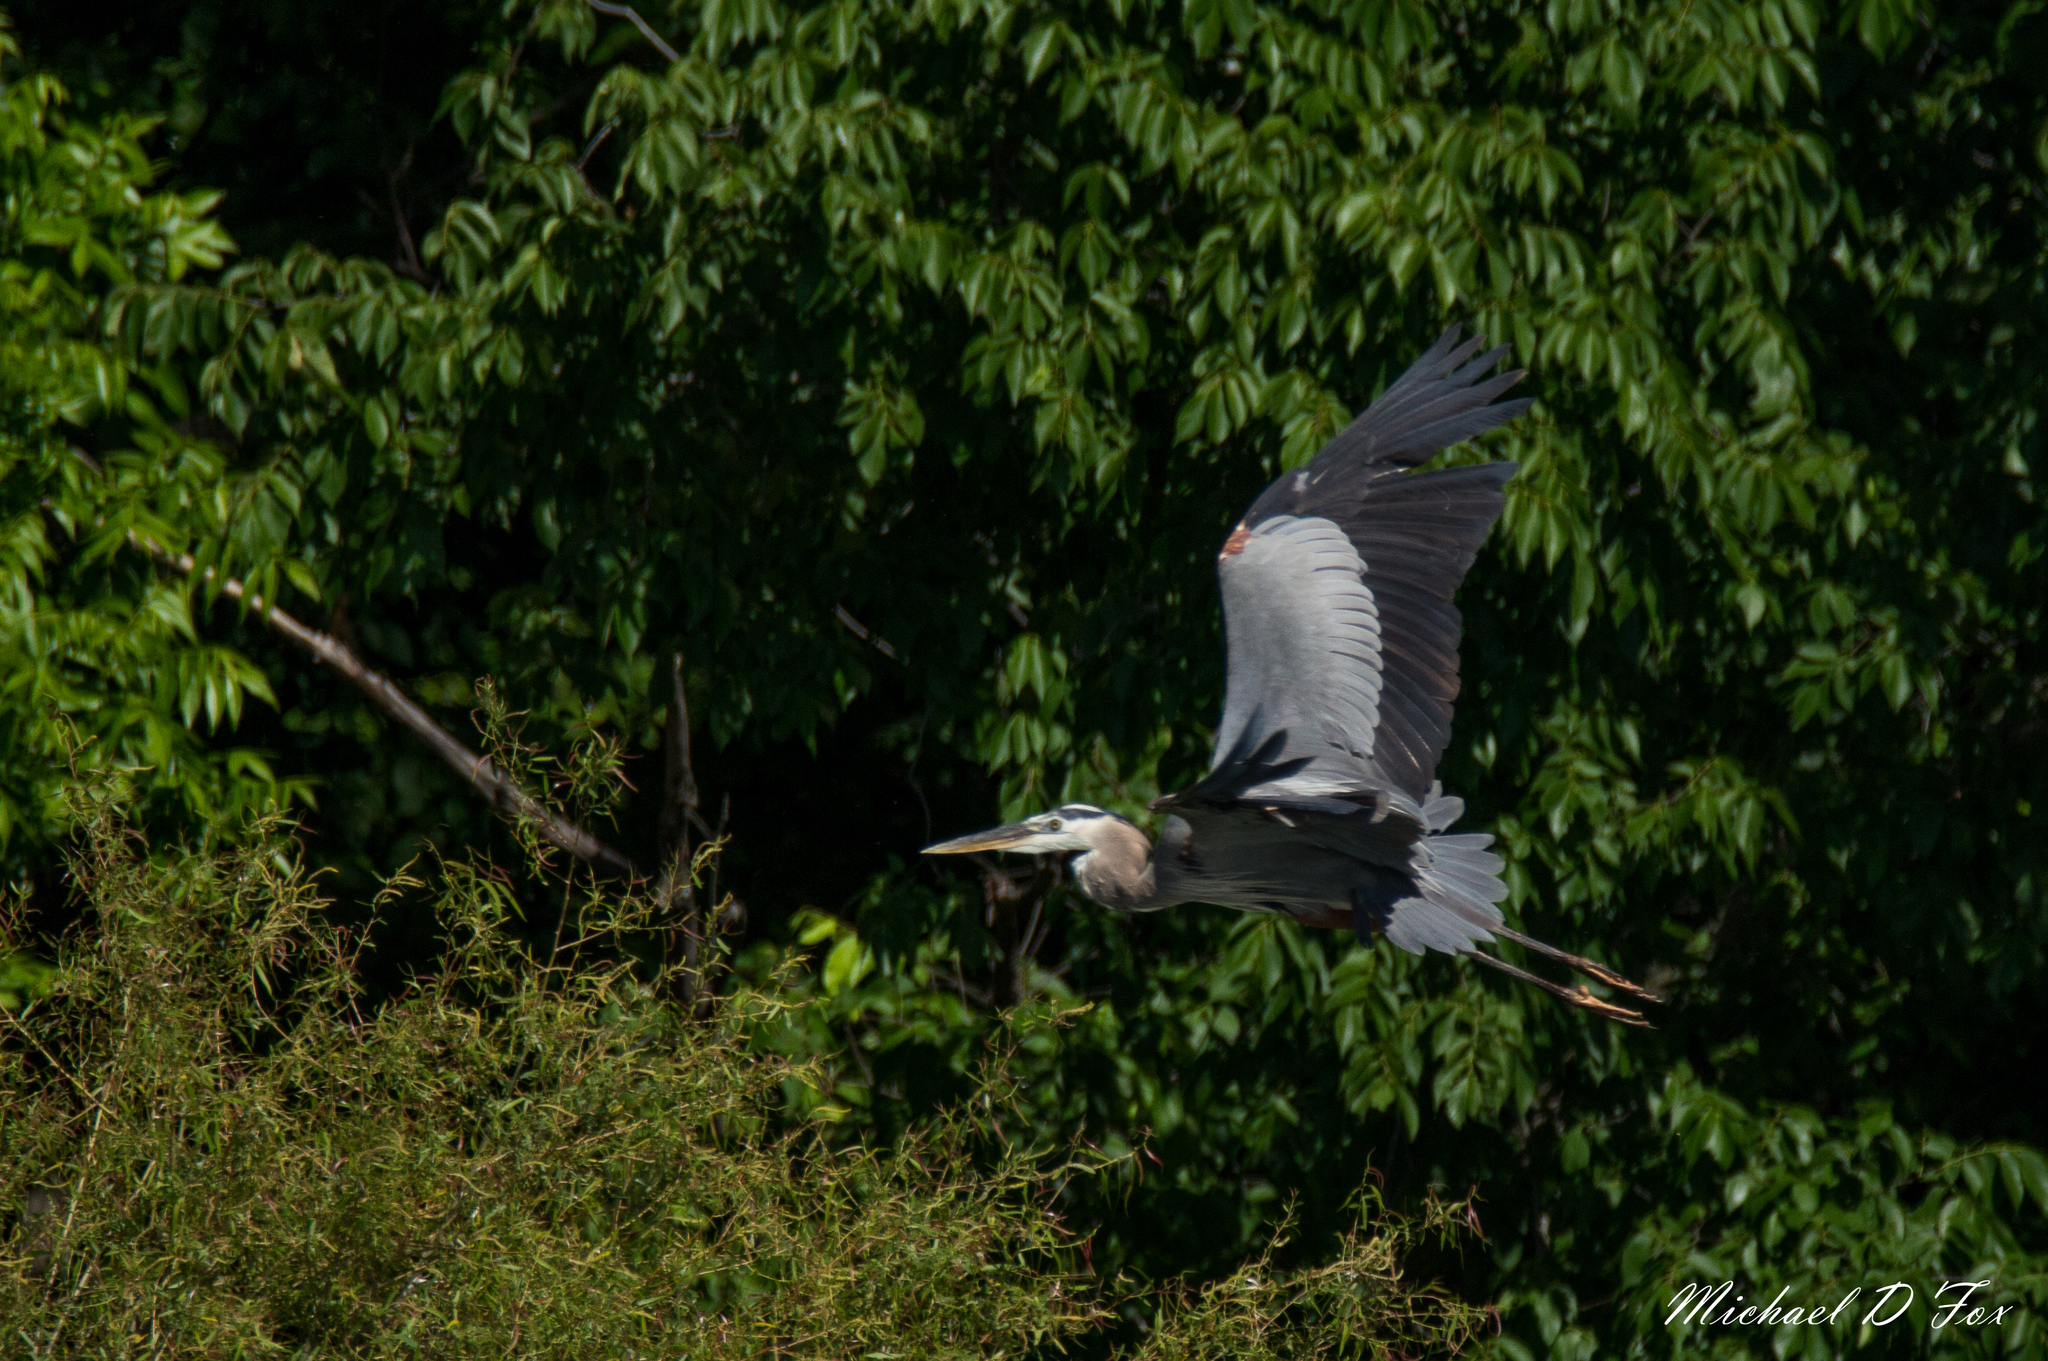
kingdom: Animalia
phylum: Chordata
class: Aves
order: Pelecaniformes
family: Ardeidae
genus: Ardea
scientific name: Ardea herodias
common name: Great blue heron
